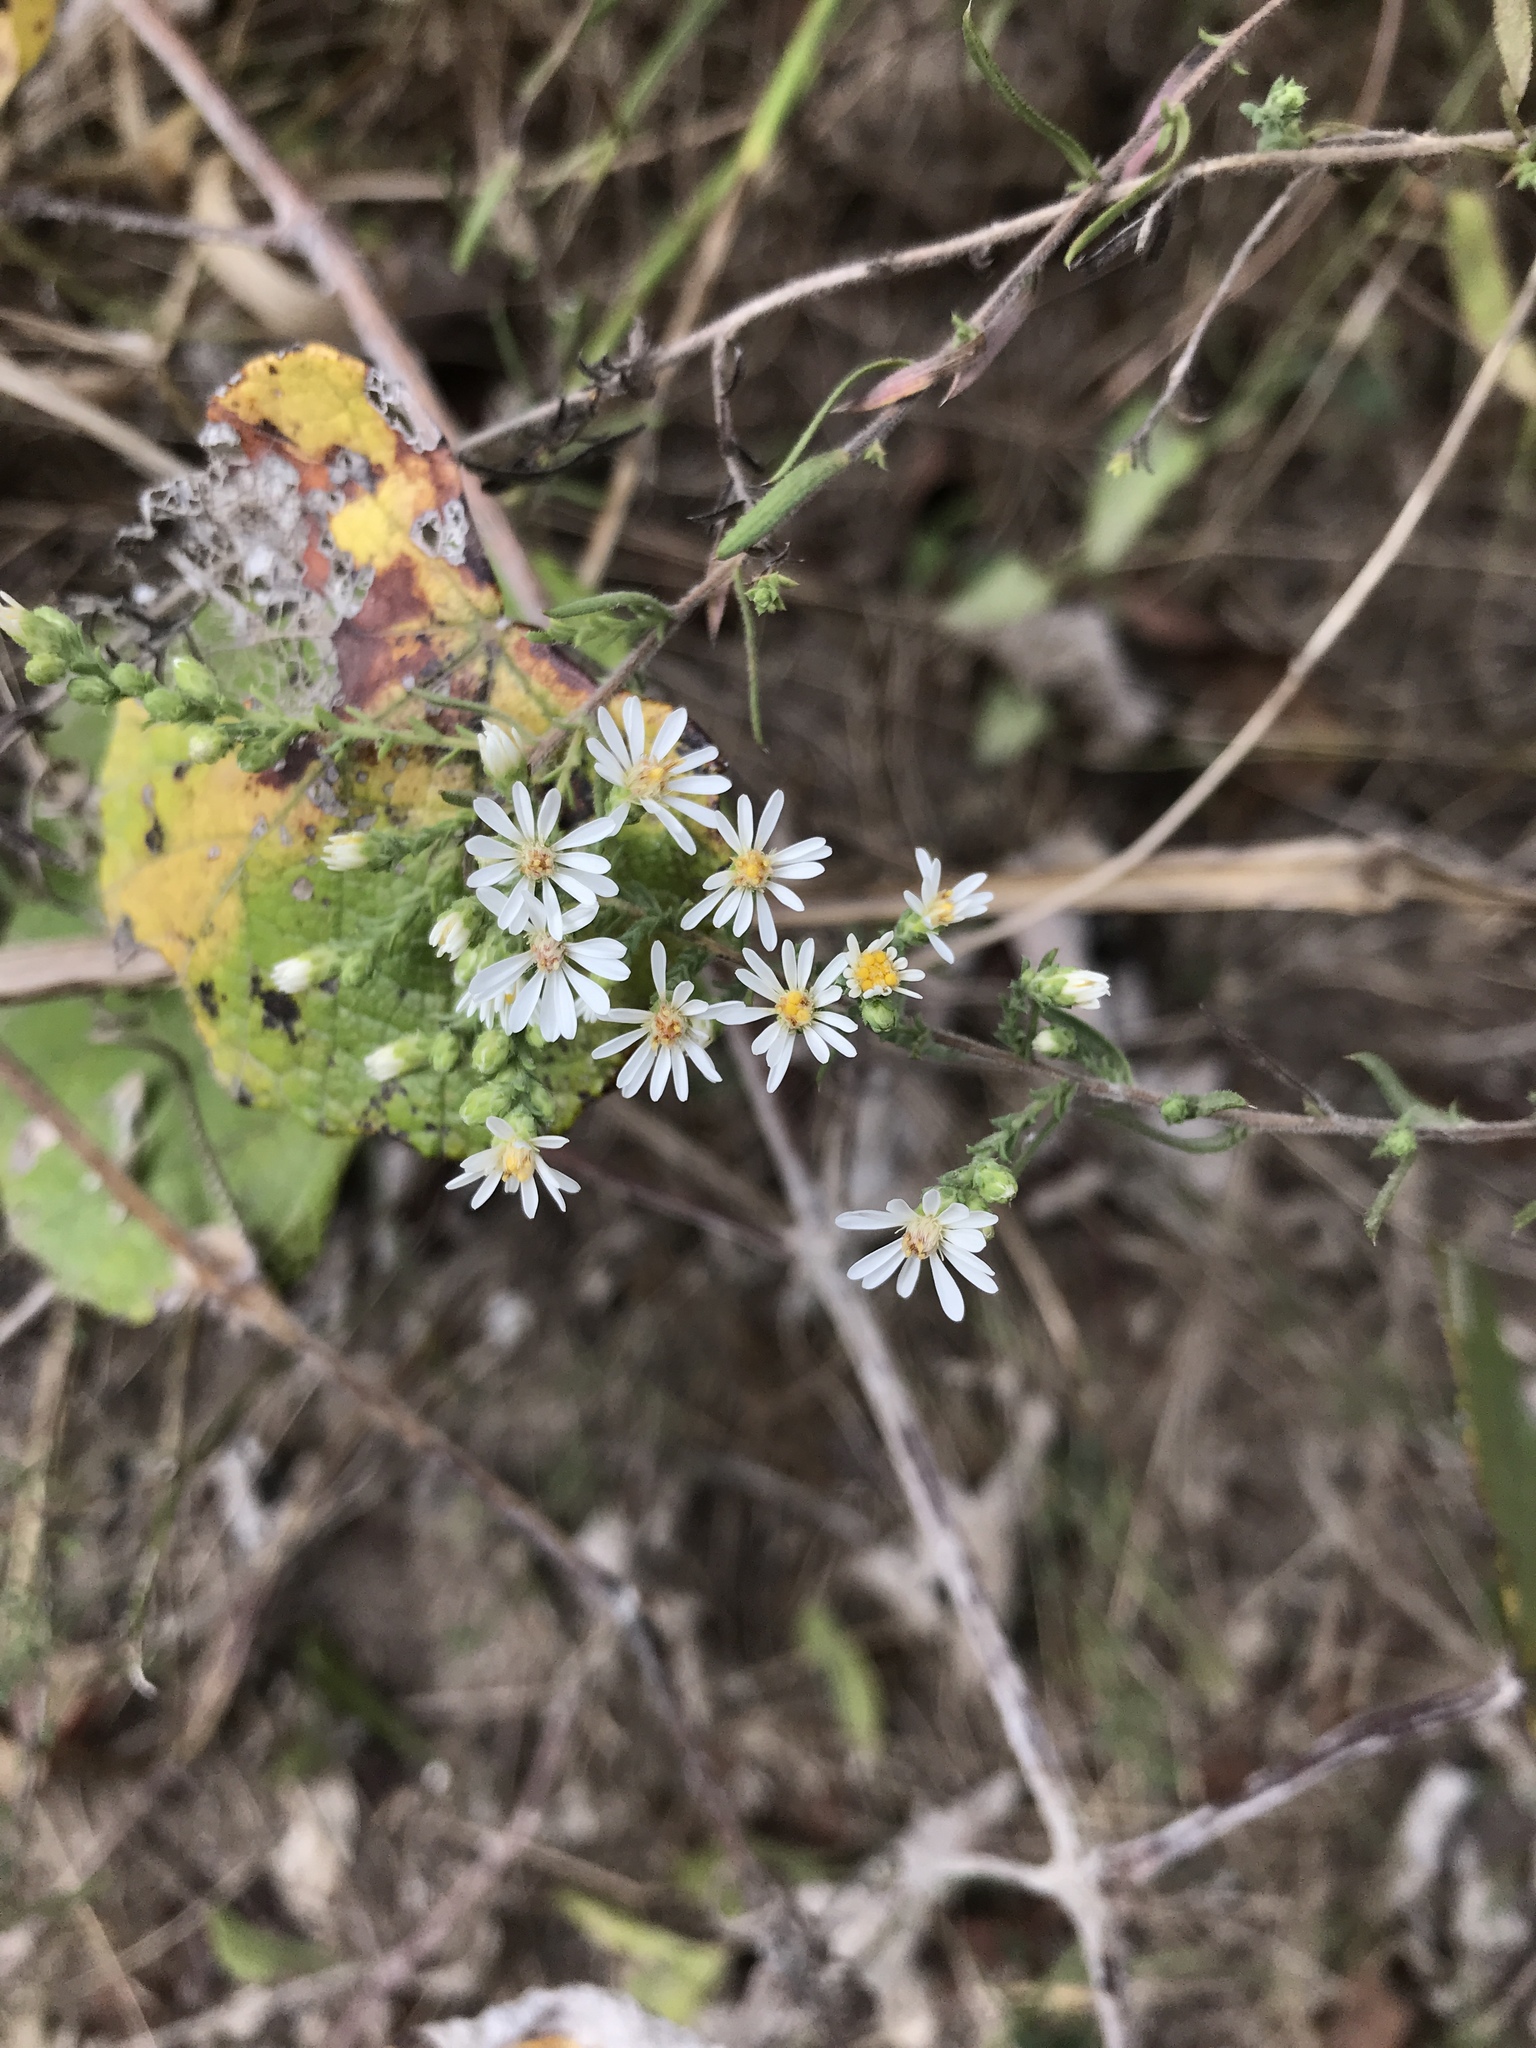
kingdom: Plantae
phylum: Tracheophyta
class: Magnoliopsida
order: Asterales
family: Asteraceae
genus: Symphyotrichum
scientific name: Symphyotrichum ericoides
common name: Heath aster
